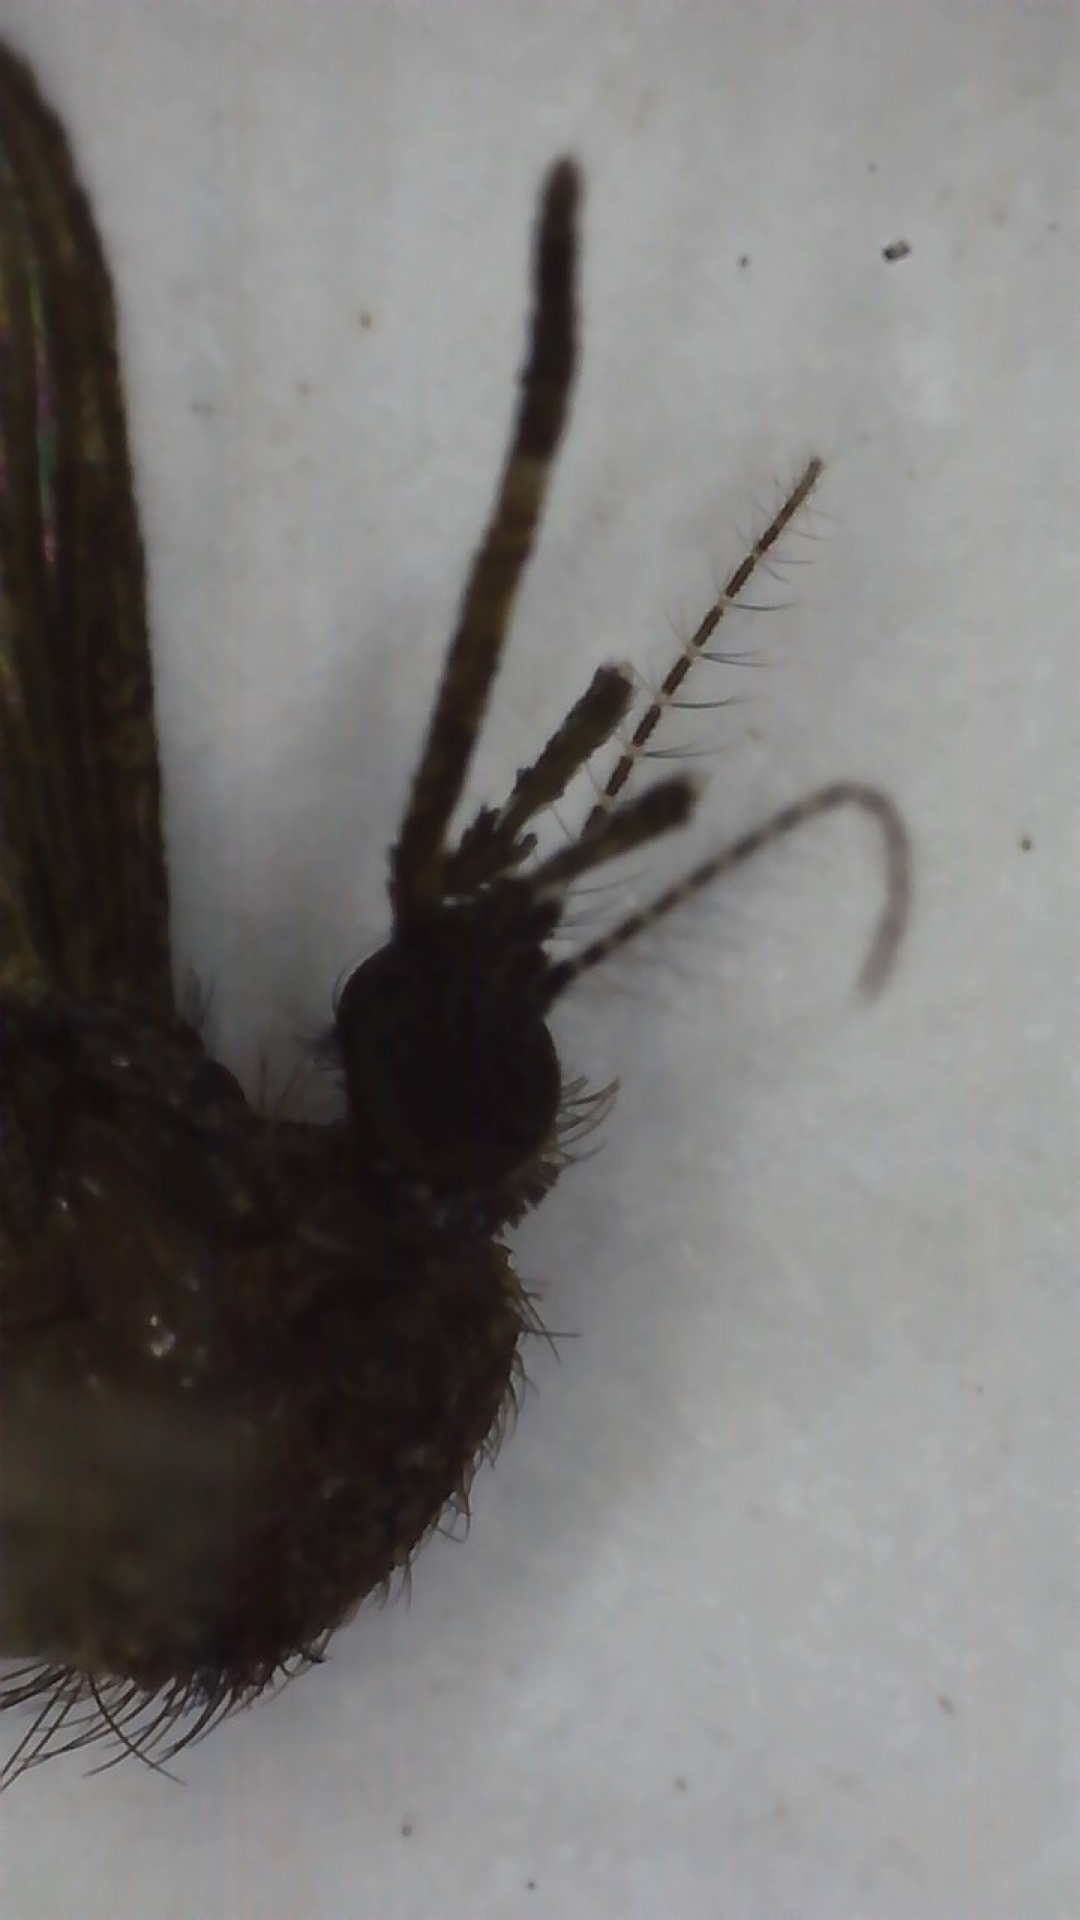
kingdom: Animalia
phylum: Arthropoda
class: Insecta
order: Diptera
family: Culicidae
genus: Mansonia
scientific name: Mansonia titillans
